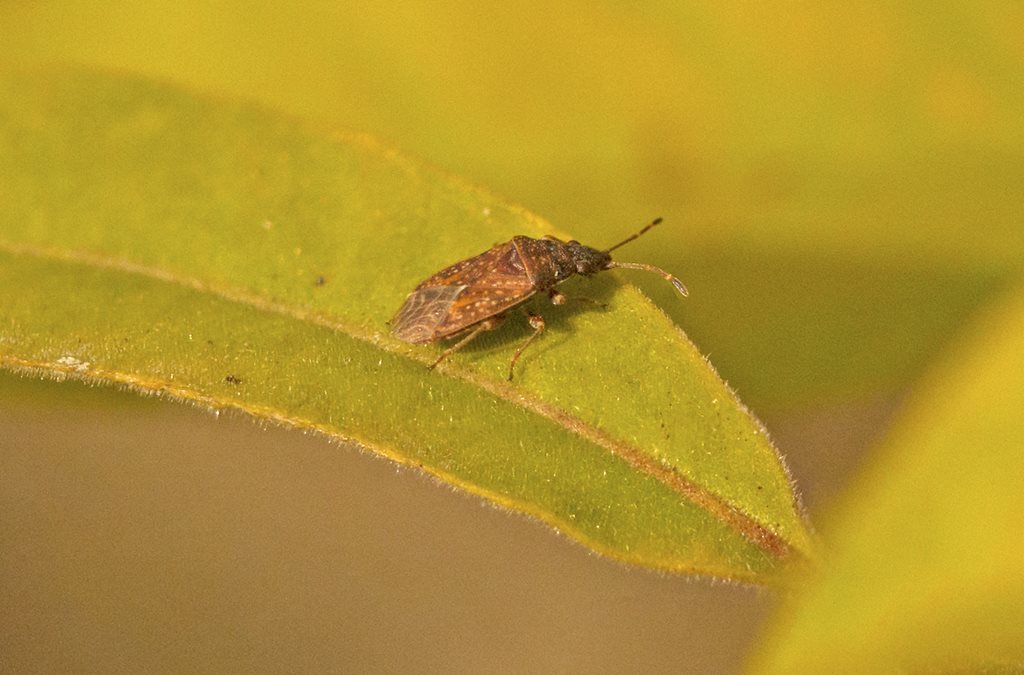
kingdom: Animalia
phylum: Arthropoda
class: Insecta
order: Hemiptera
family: Lygaeidae
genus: Koscocrompus
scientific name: Koscocrompus obscurus
